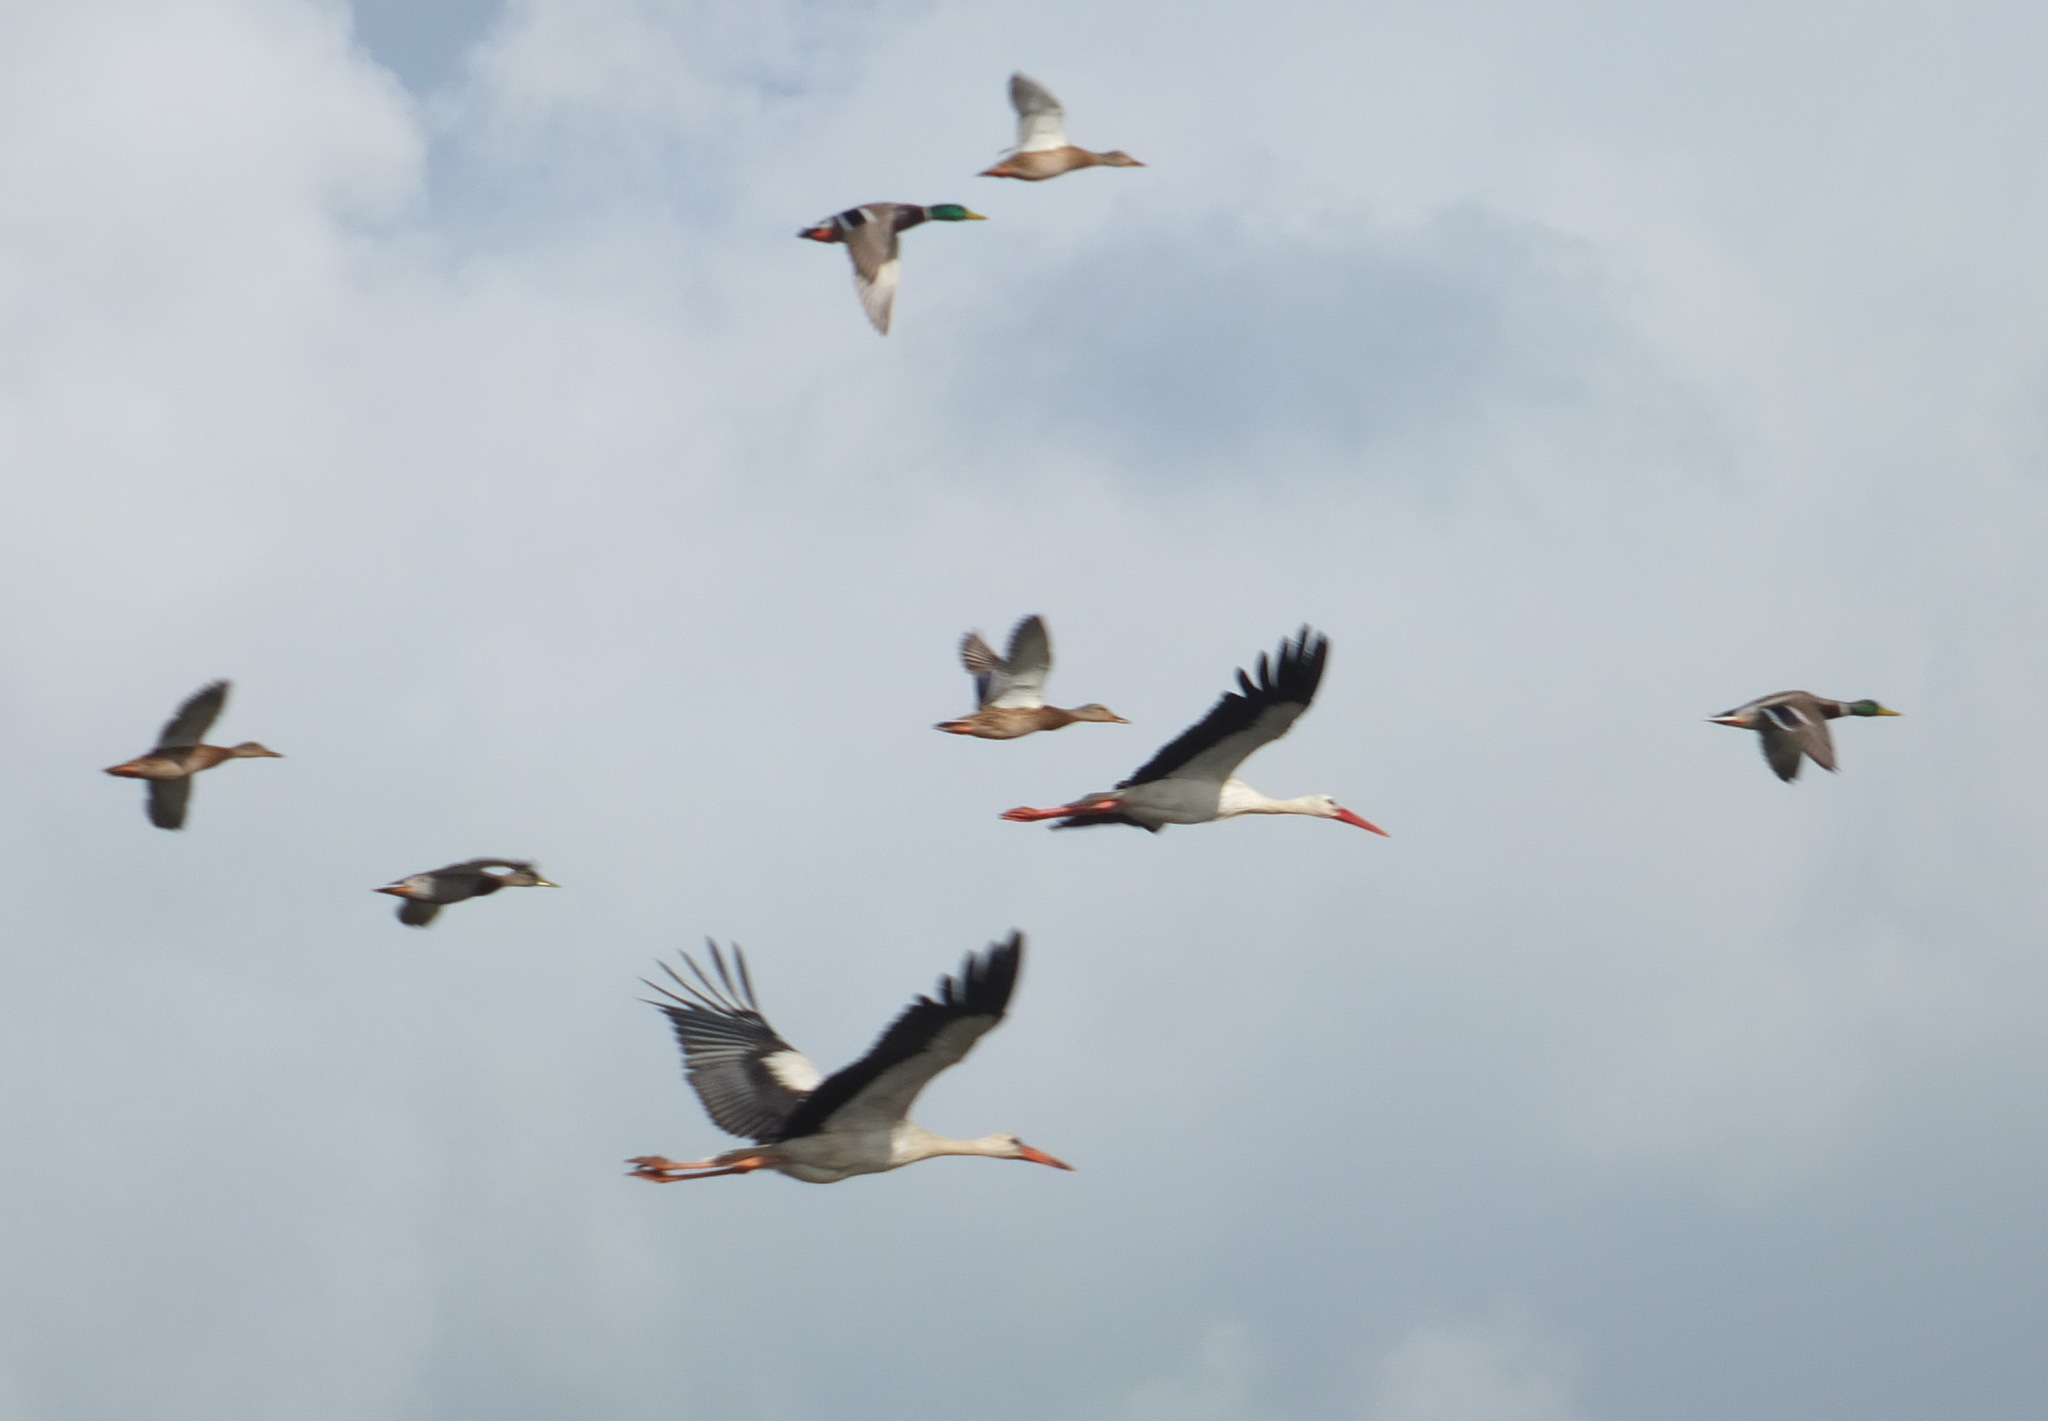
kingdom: Animalia
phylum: Chordata
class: Aves
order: Ciconiiformes
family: Ciconiidae
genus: Ciconia
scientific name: Ciconia ciconia
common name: White stork
